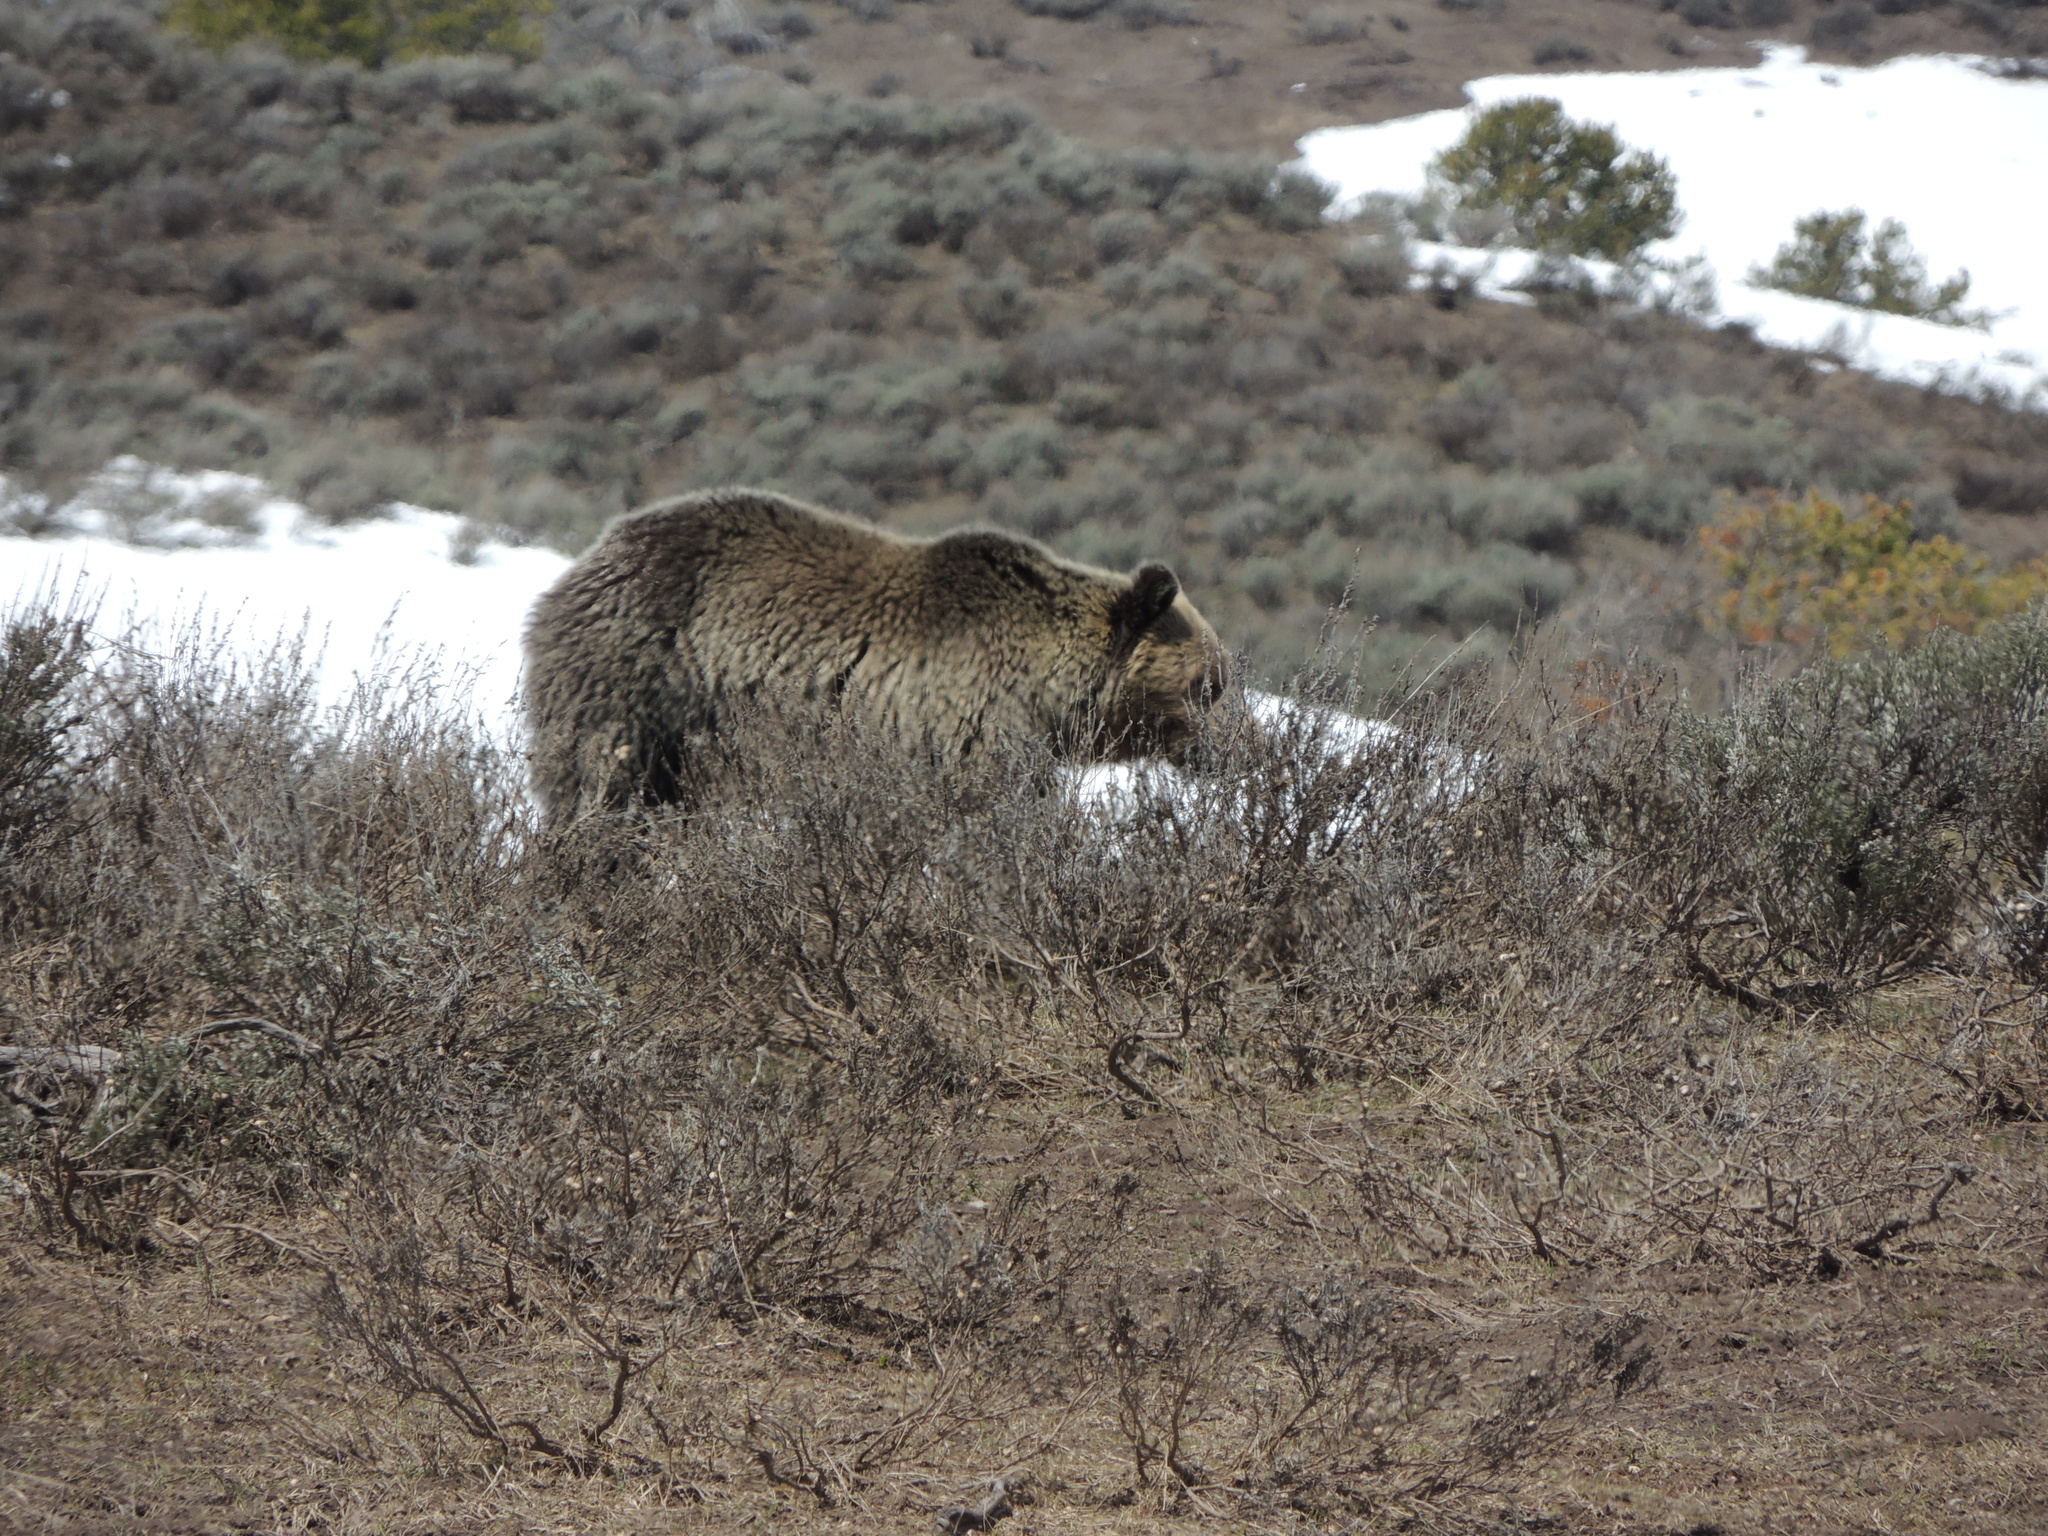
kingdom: Animalia
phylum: Chordata
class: Mammalia
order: Carnivora
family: Ursidae
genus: Ursus
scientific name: Ursus arctos
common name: Brown bear
